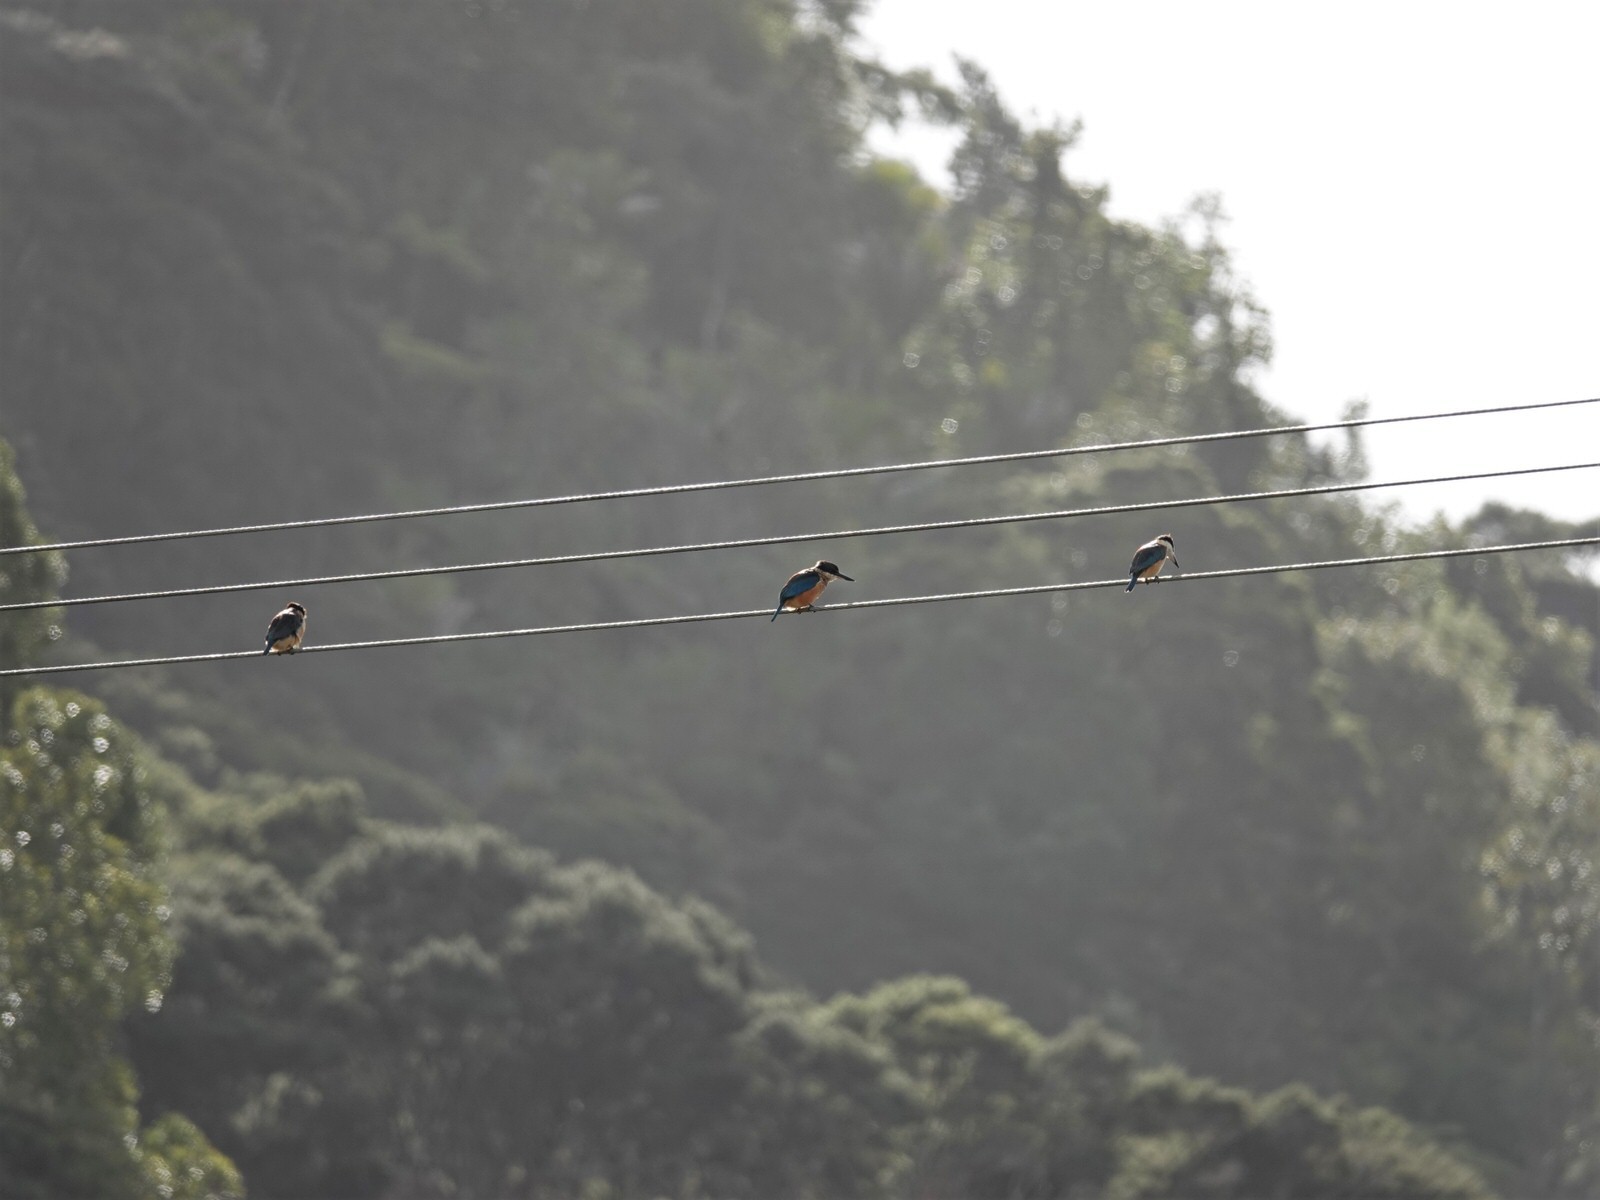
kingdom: Animalia
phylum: Chordata
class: Aves
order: Coraciiformes
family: Alcedinidae
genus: Todiramphus
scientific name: Todiramphus sanctus
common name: Sacred kingfisher
